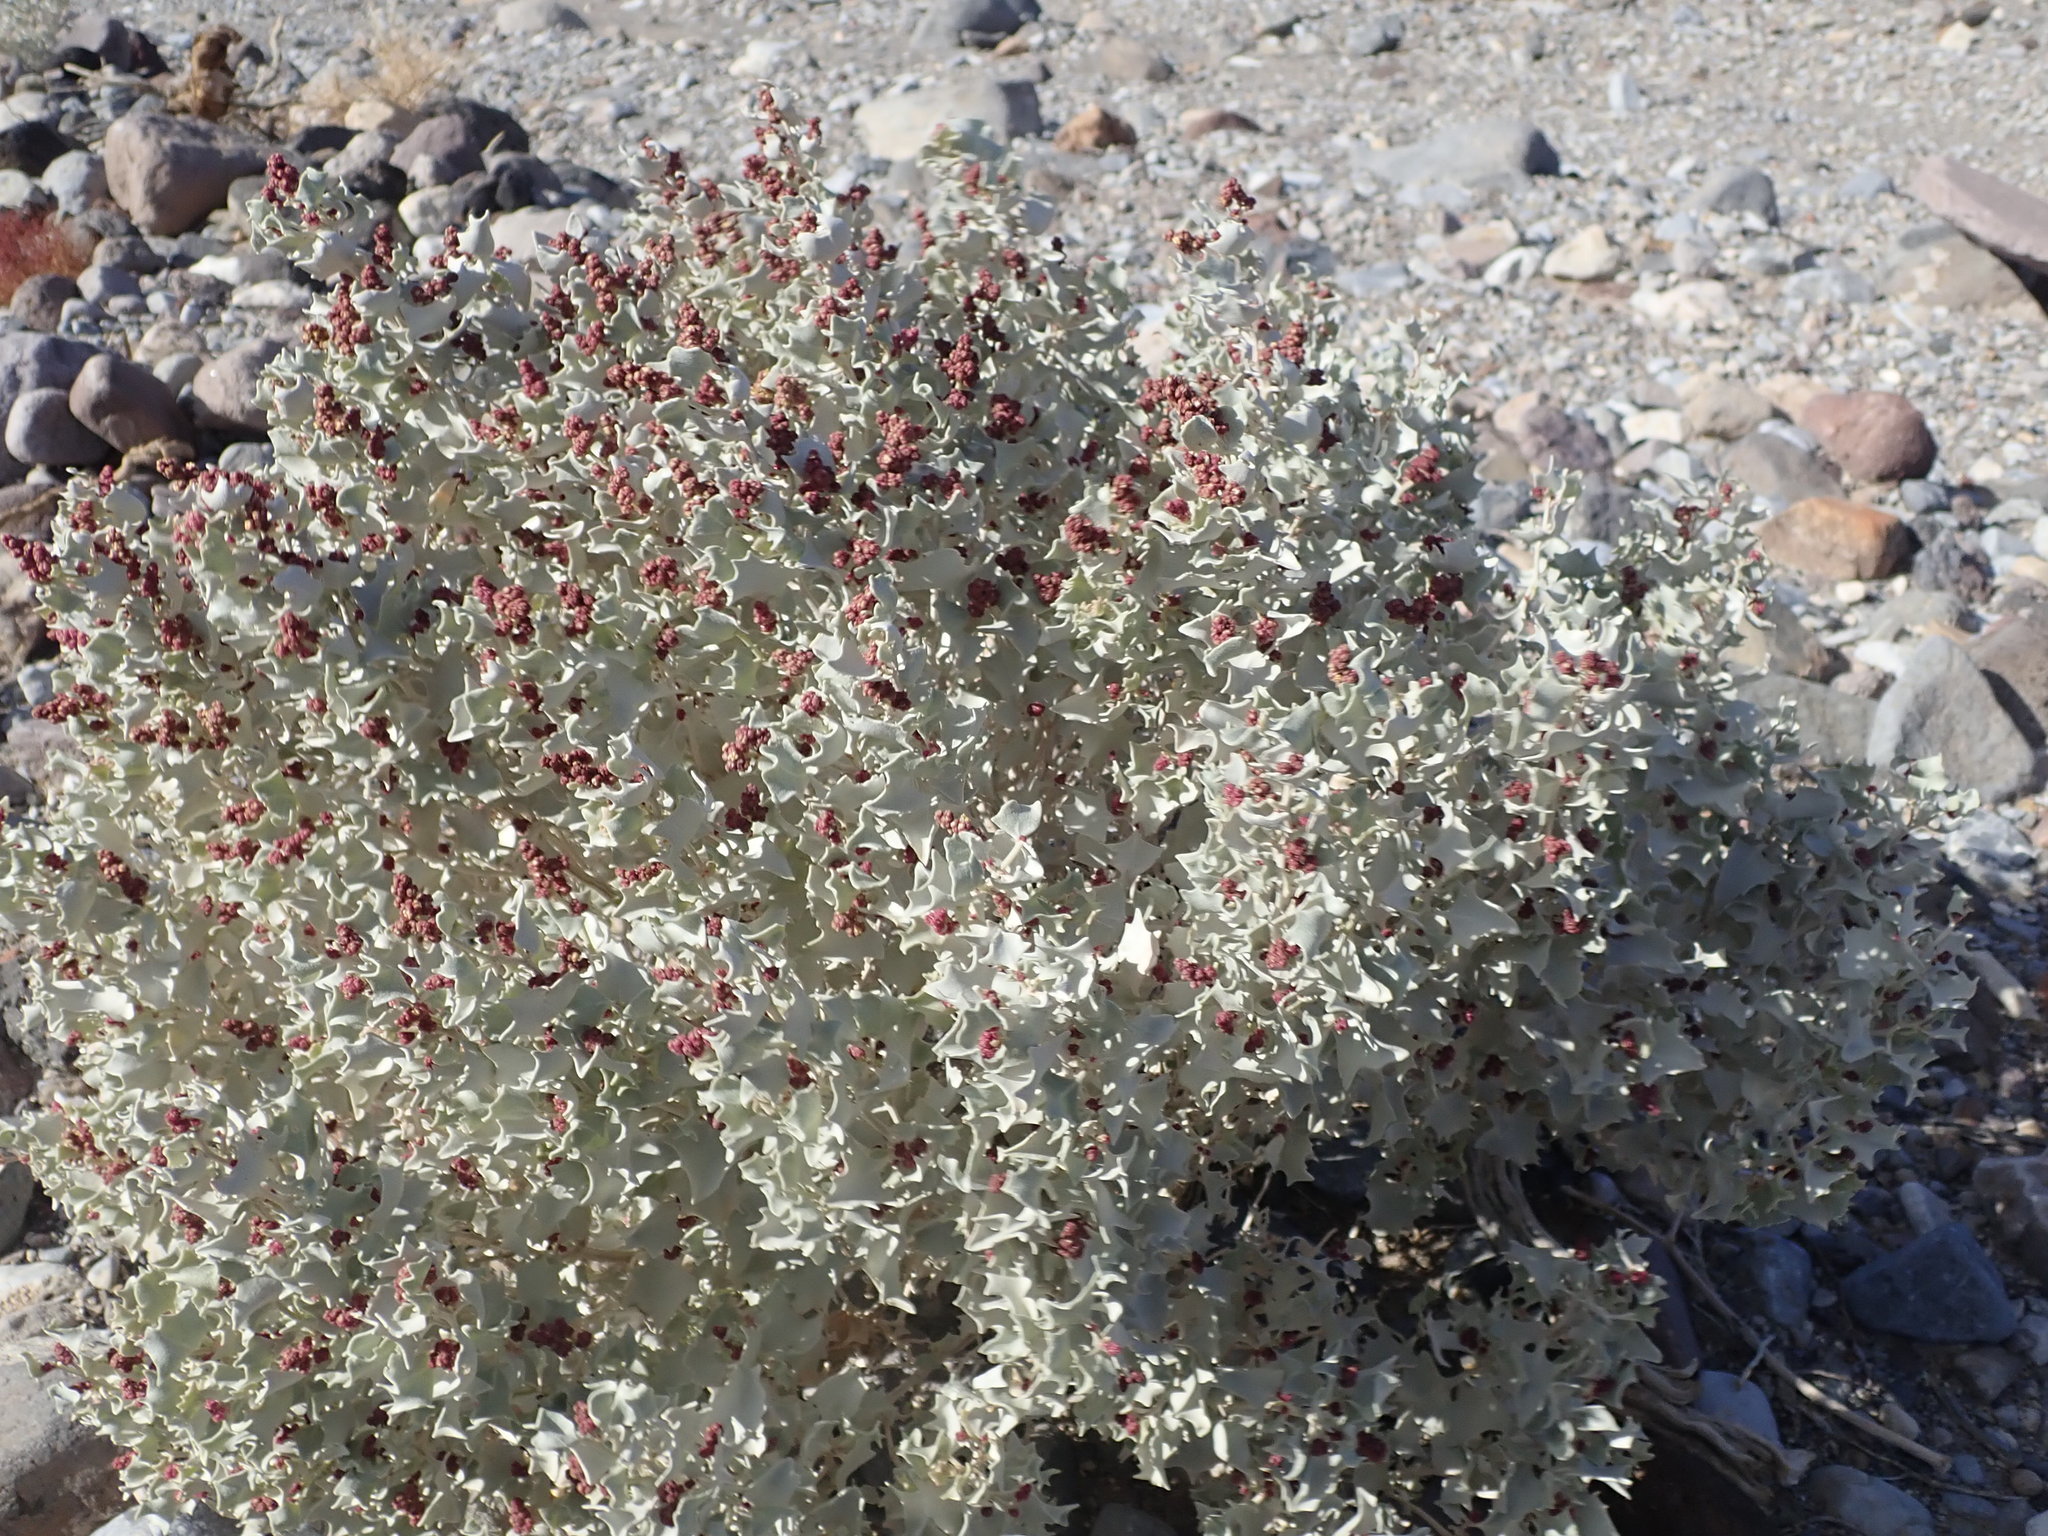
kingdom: Plantae
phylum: Tracheophyta
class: Magnoliopsida
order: Caryophyllales
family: Amaranthaceae
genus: Atriplex
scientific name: Atriplex hymenelytra
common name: Desert-holly
